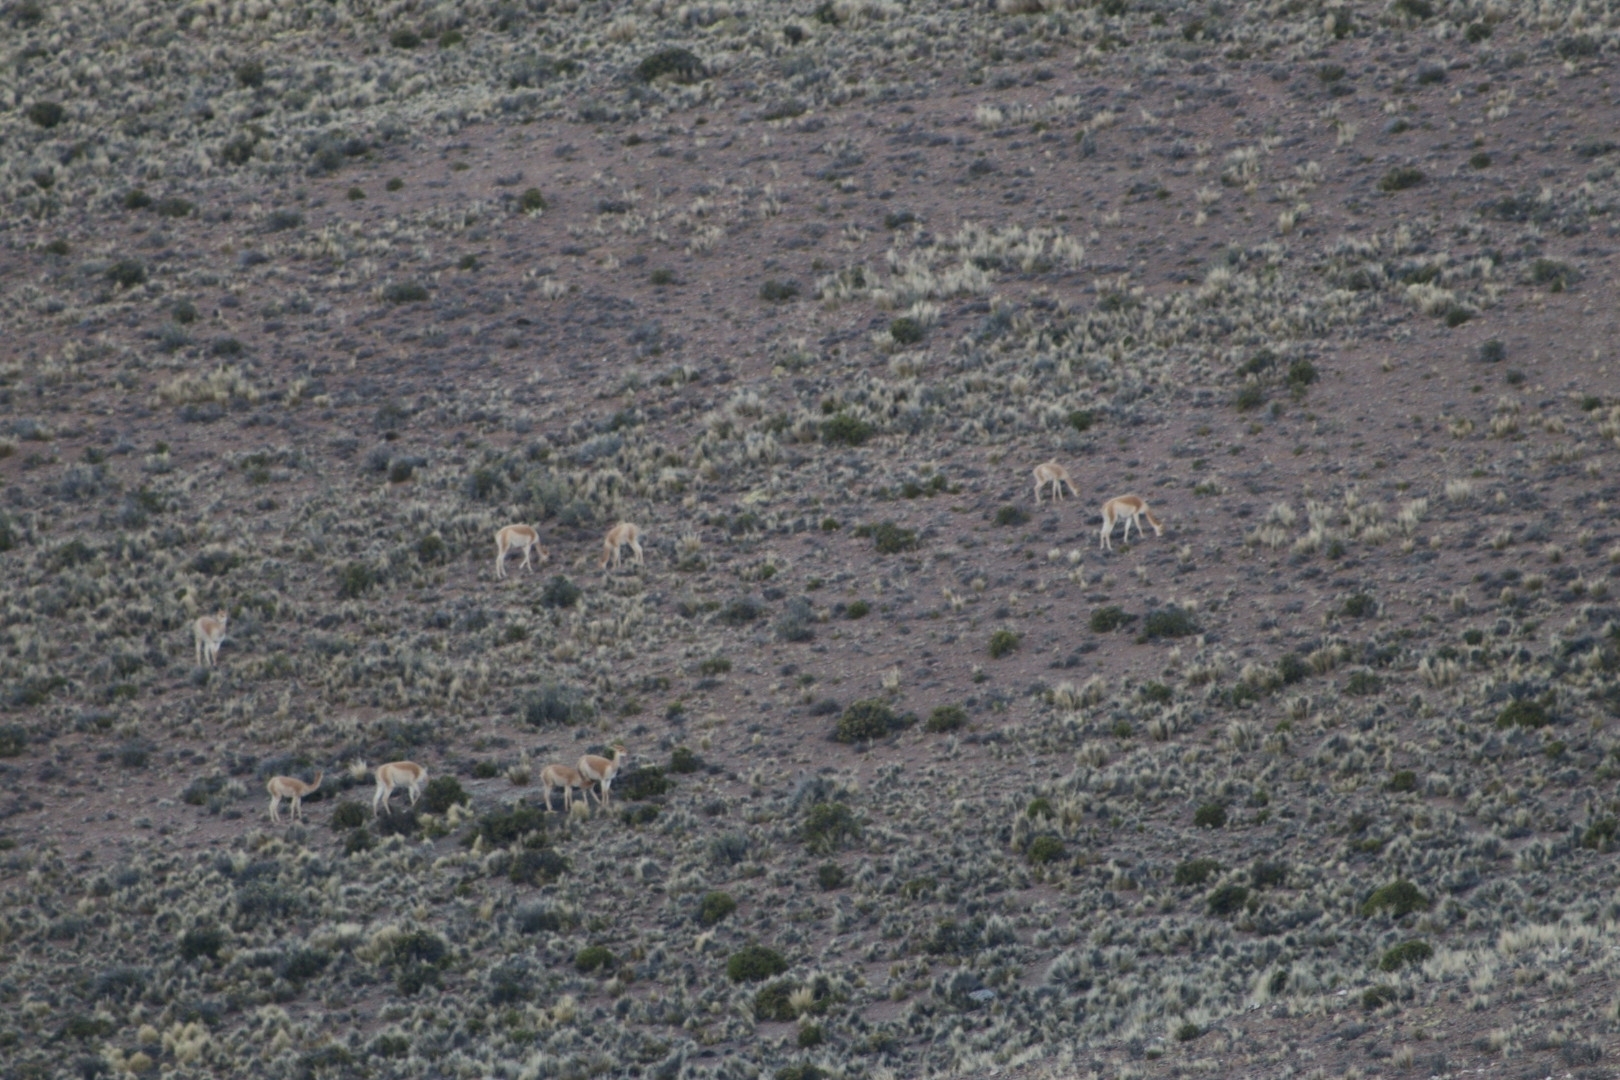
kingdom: Animalia
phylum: Chordata
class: Mammalia
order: Artiodactyla
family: Camelidae
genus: Vicugna
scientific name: Vicugna vicugna
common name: Vicugna
